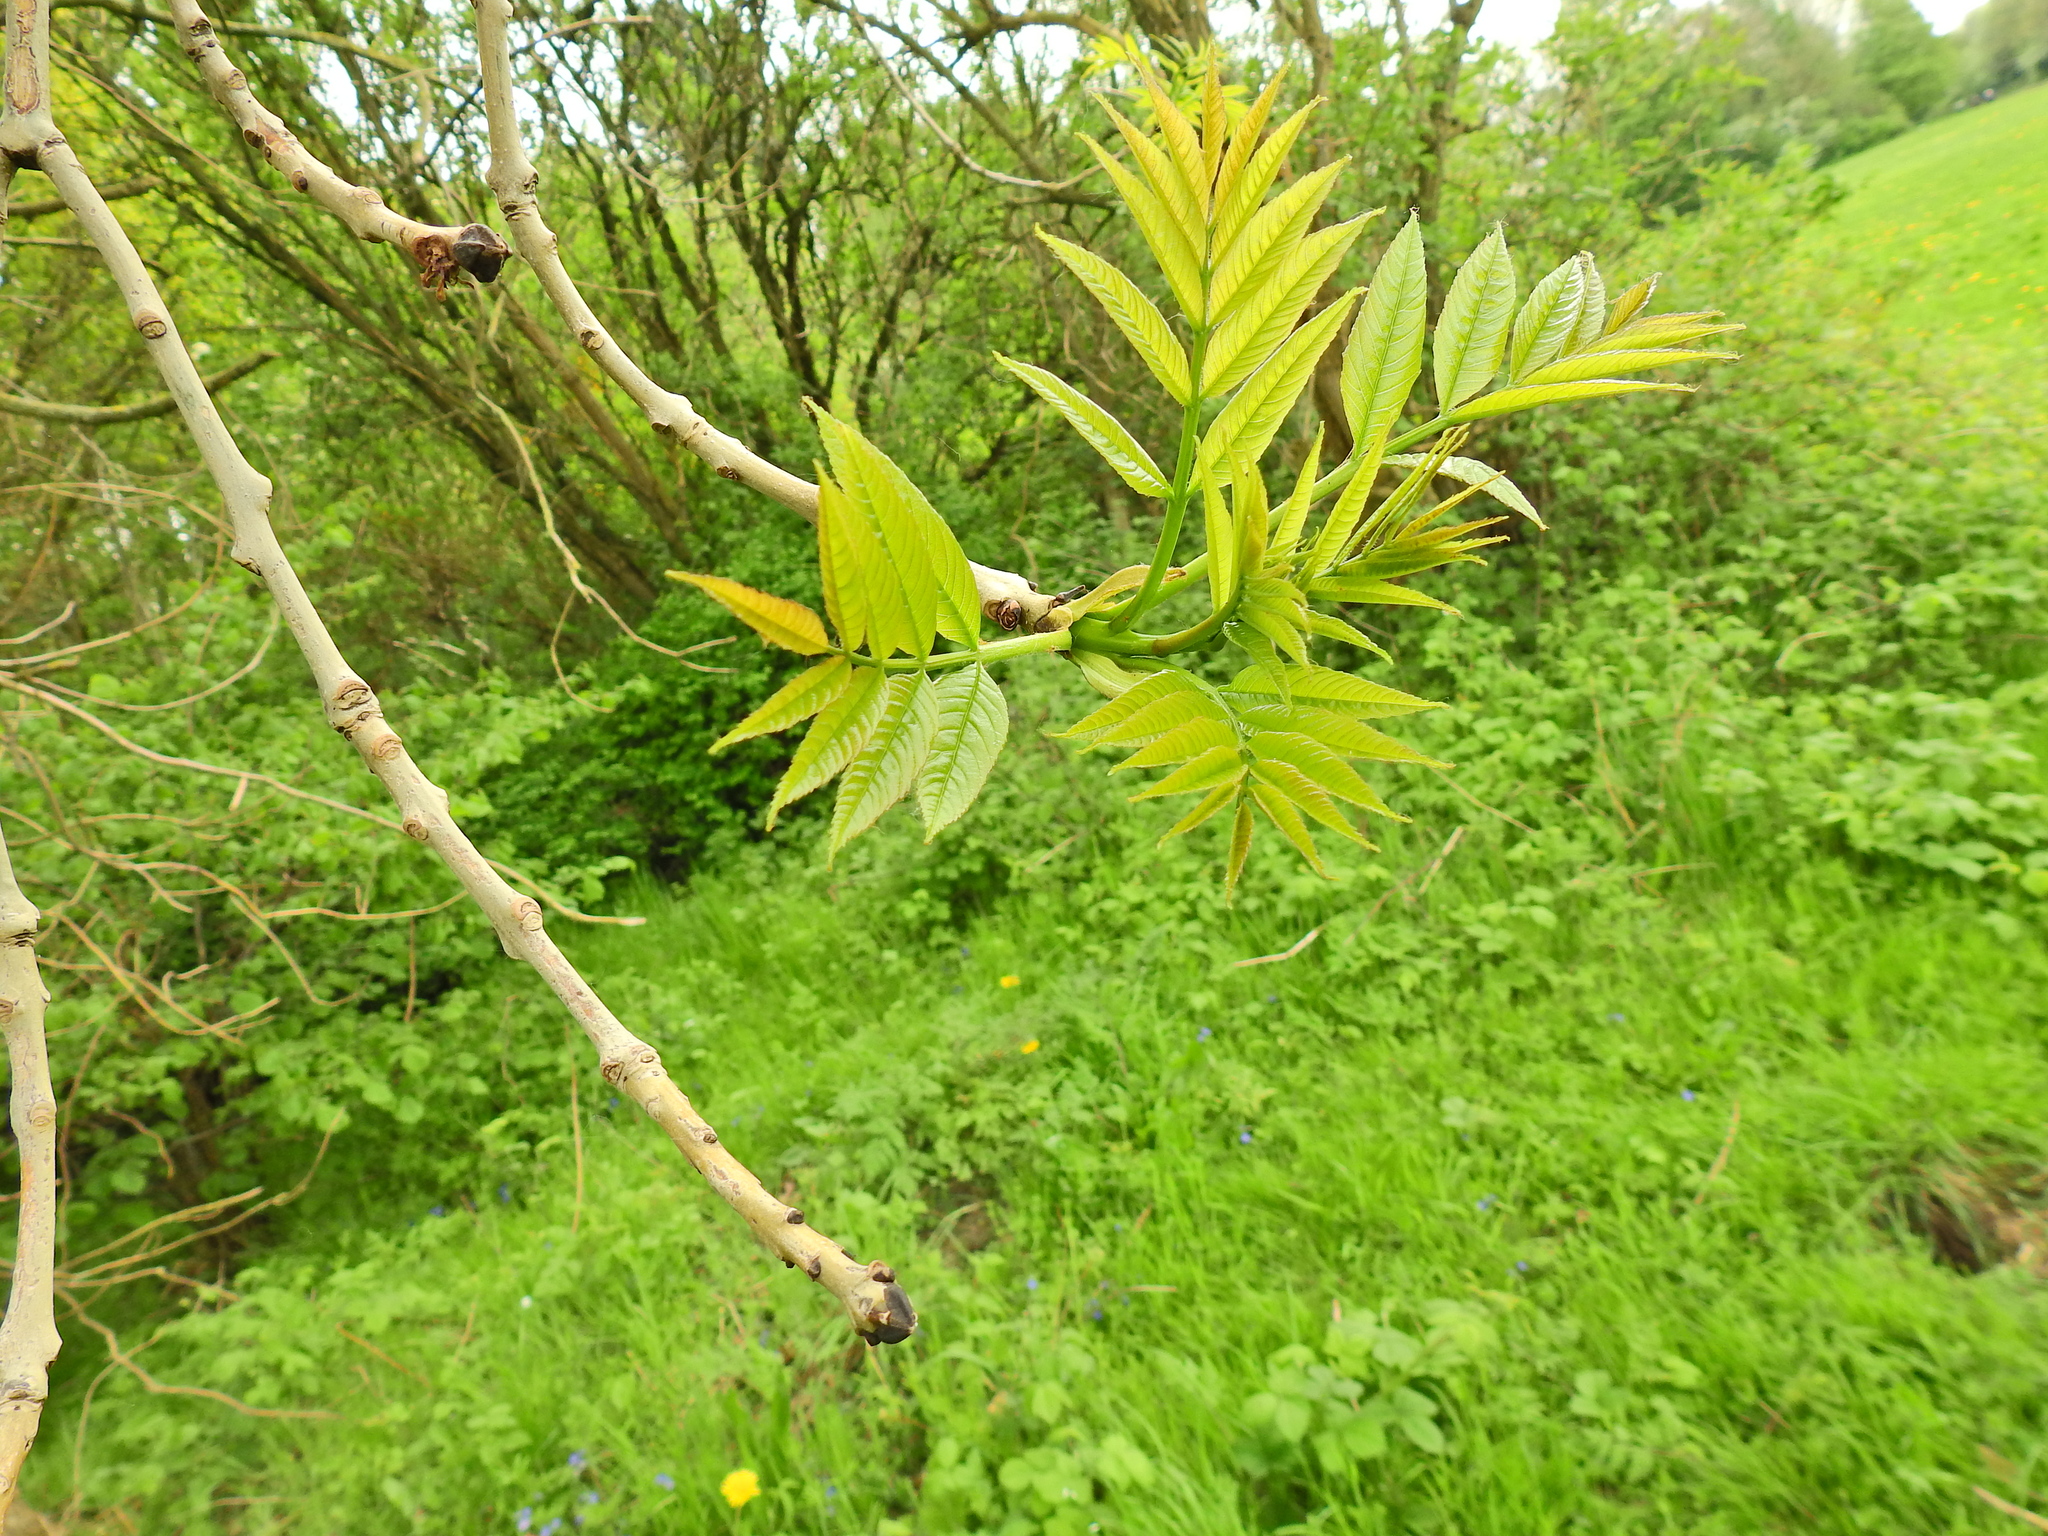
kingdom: Plantae
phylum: Tracheophyta
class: Magnoliopsida
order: Lamiales
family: Oleaceae
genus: Fraxinus
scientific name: Fraxinus excelsior
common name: European ash
